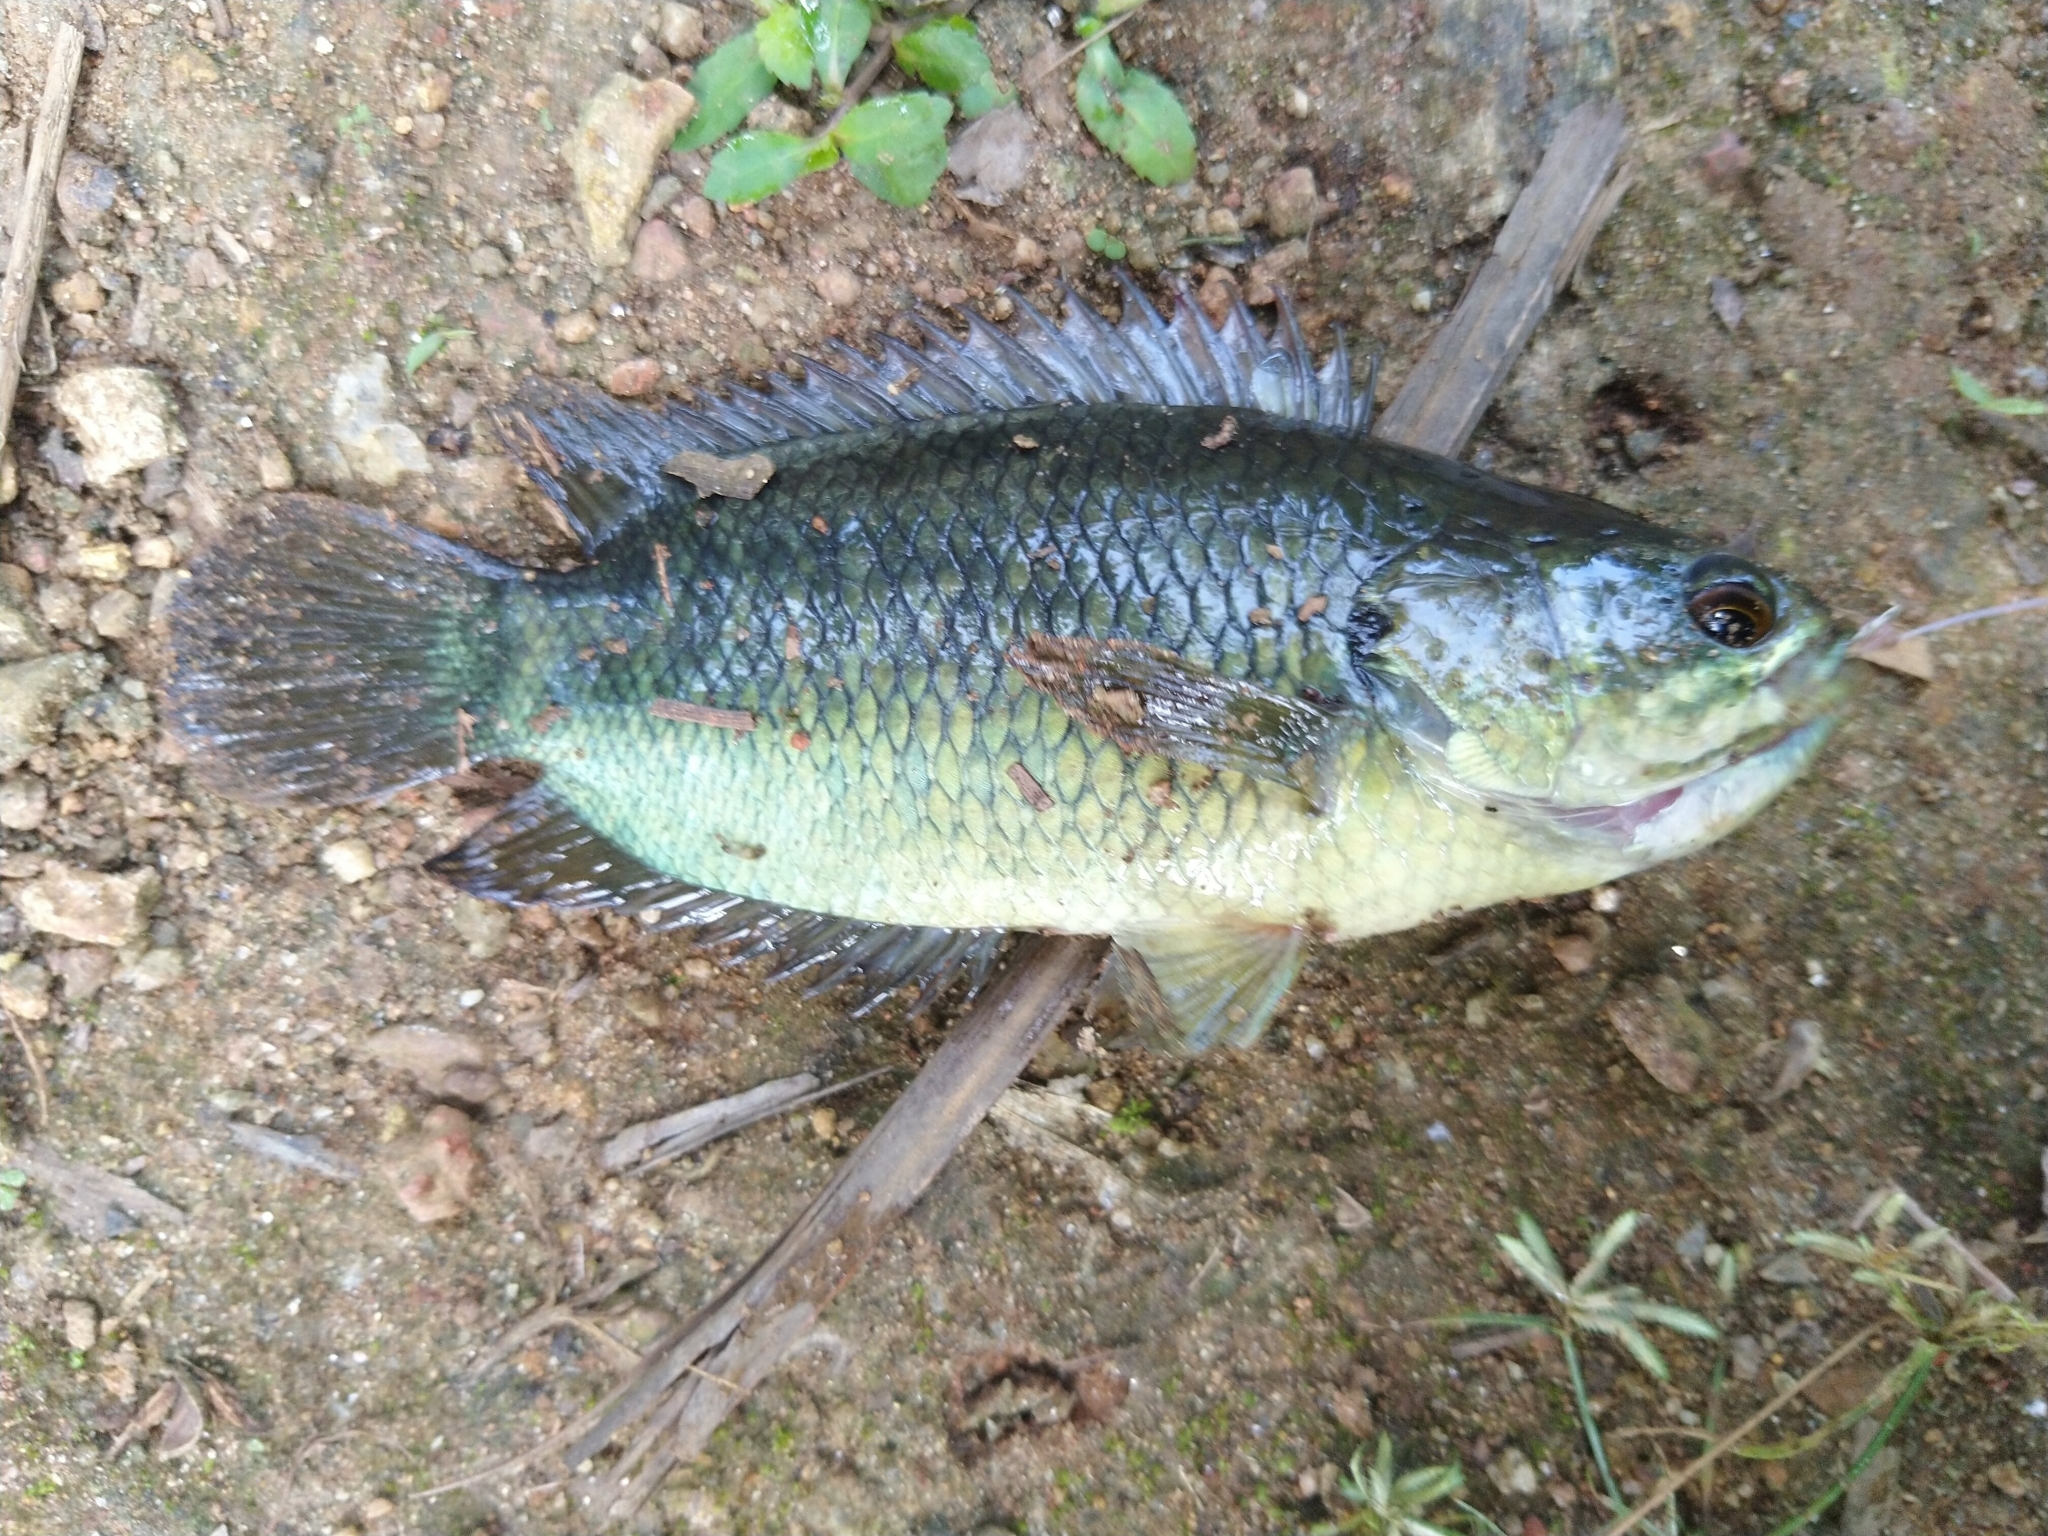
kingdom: Animalia
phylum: Chordata
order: Perciformes
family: Anabantidae
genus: Anabas
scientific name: Anabas testudineus
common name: Climbing perch
